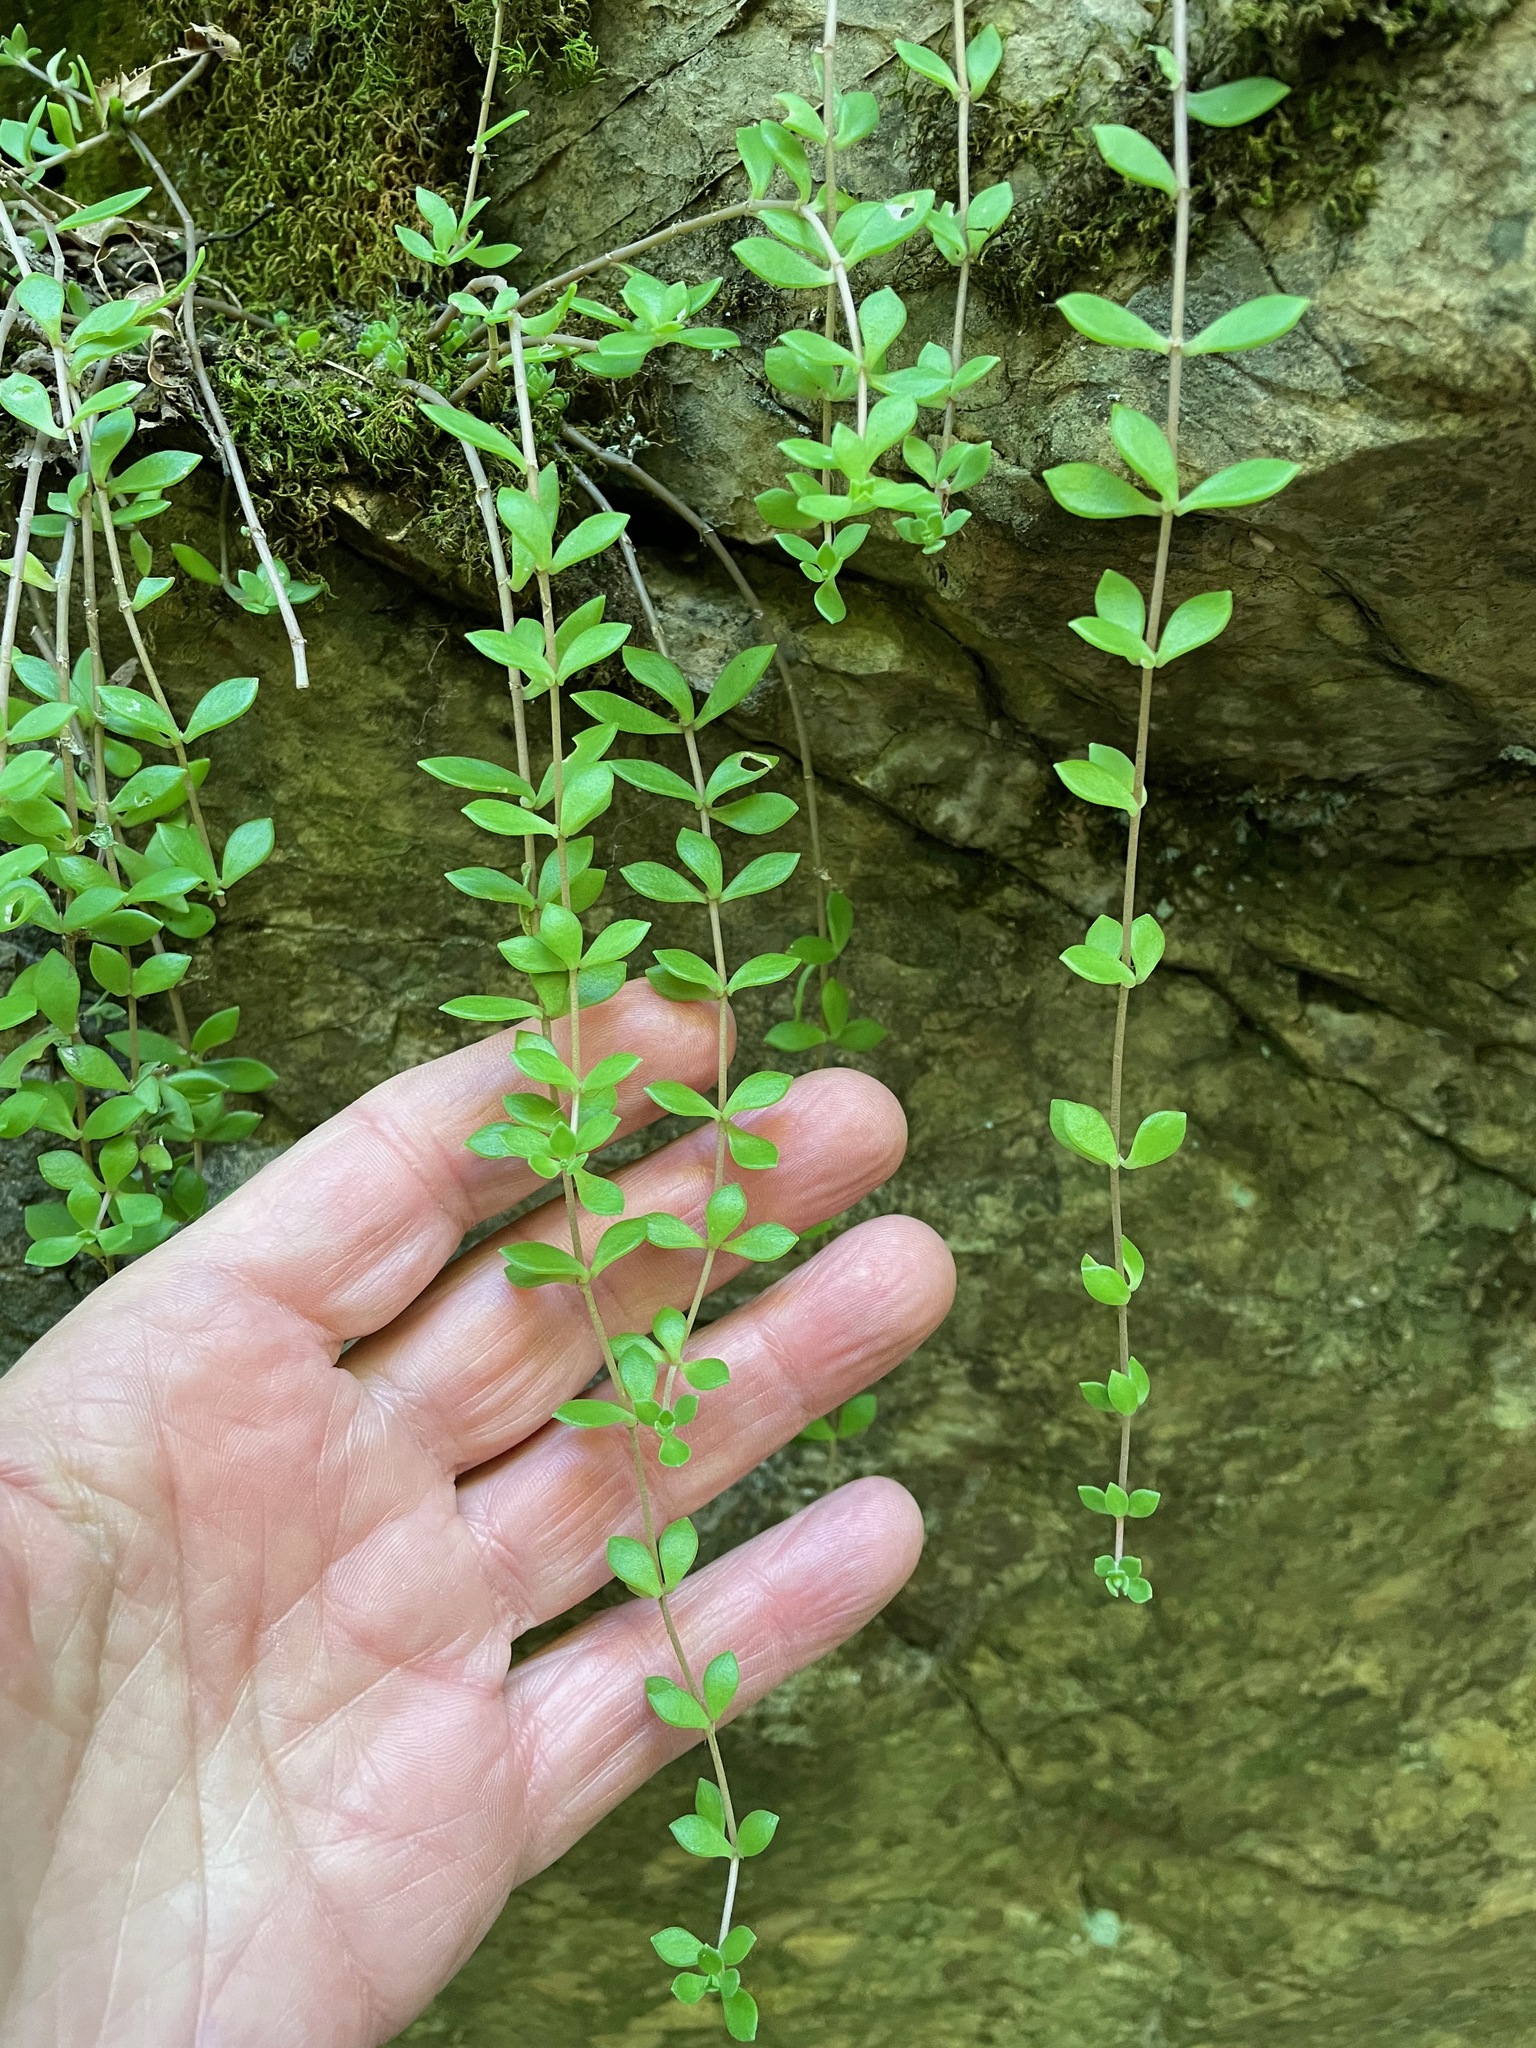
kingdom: Plantae
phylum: Tracheophyta
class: Magnoliopsida
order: Saxifragales
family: Crassulaceae
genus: Sedum
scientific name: Sedum sarmentosum
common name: Stringy stonecrop
